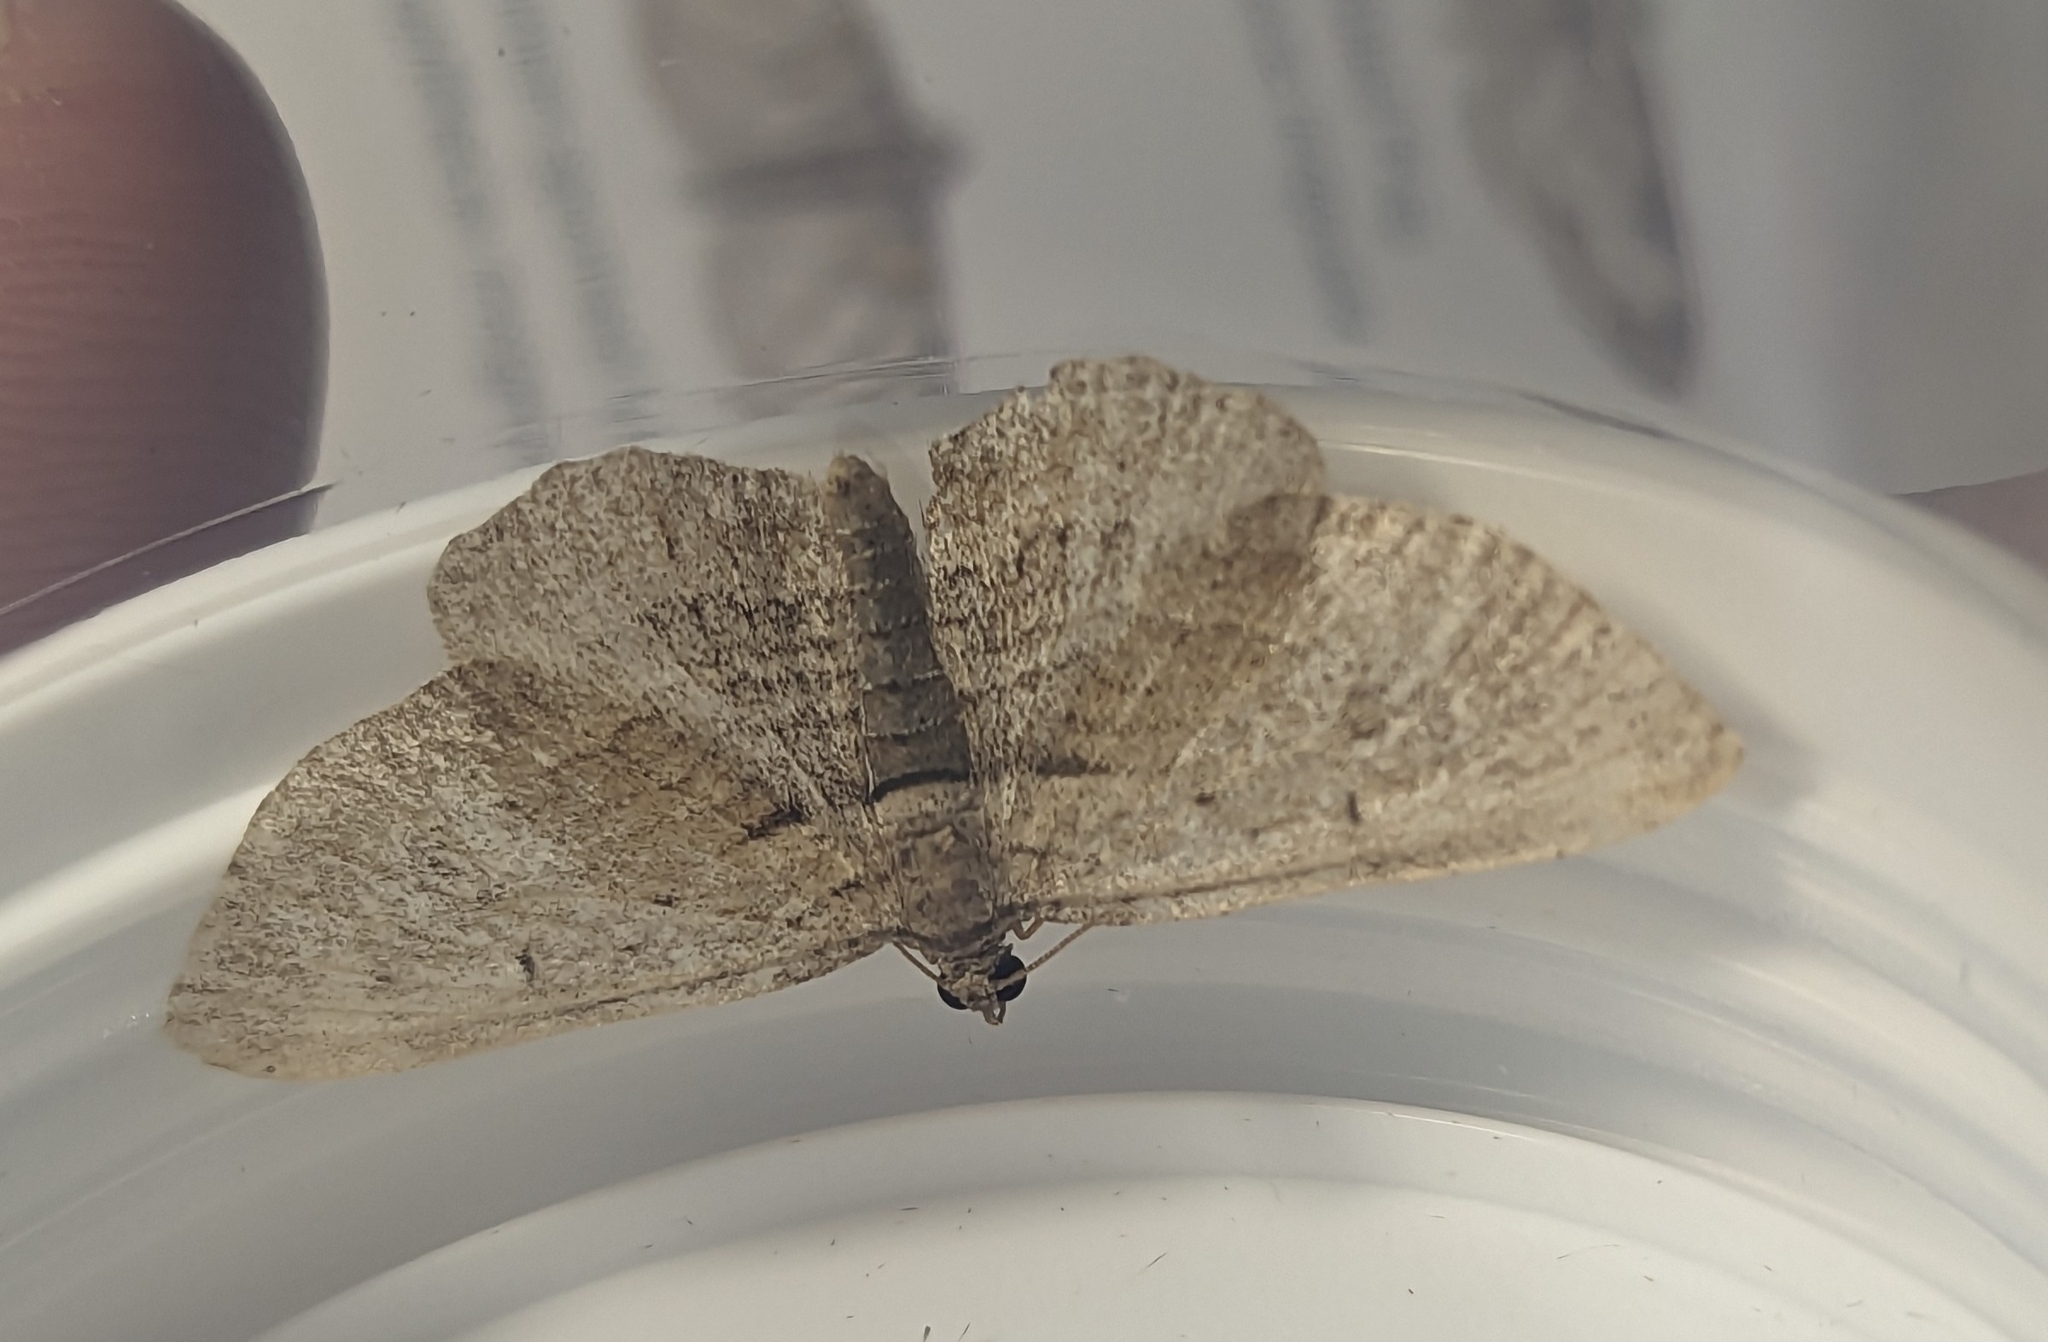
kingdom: Animalia
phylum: Arthropoda
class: Insecta
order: Lepidoptera
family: Geometridae
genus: Horisme
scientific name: Horisme tersata
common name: Fern
